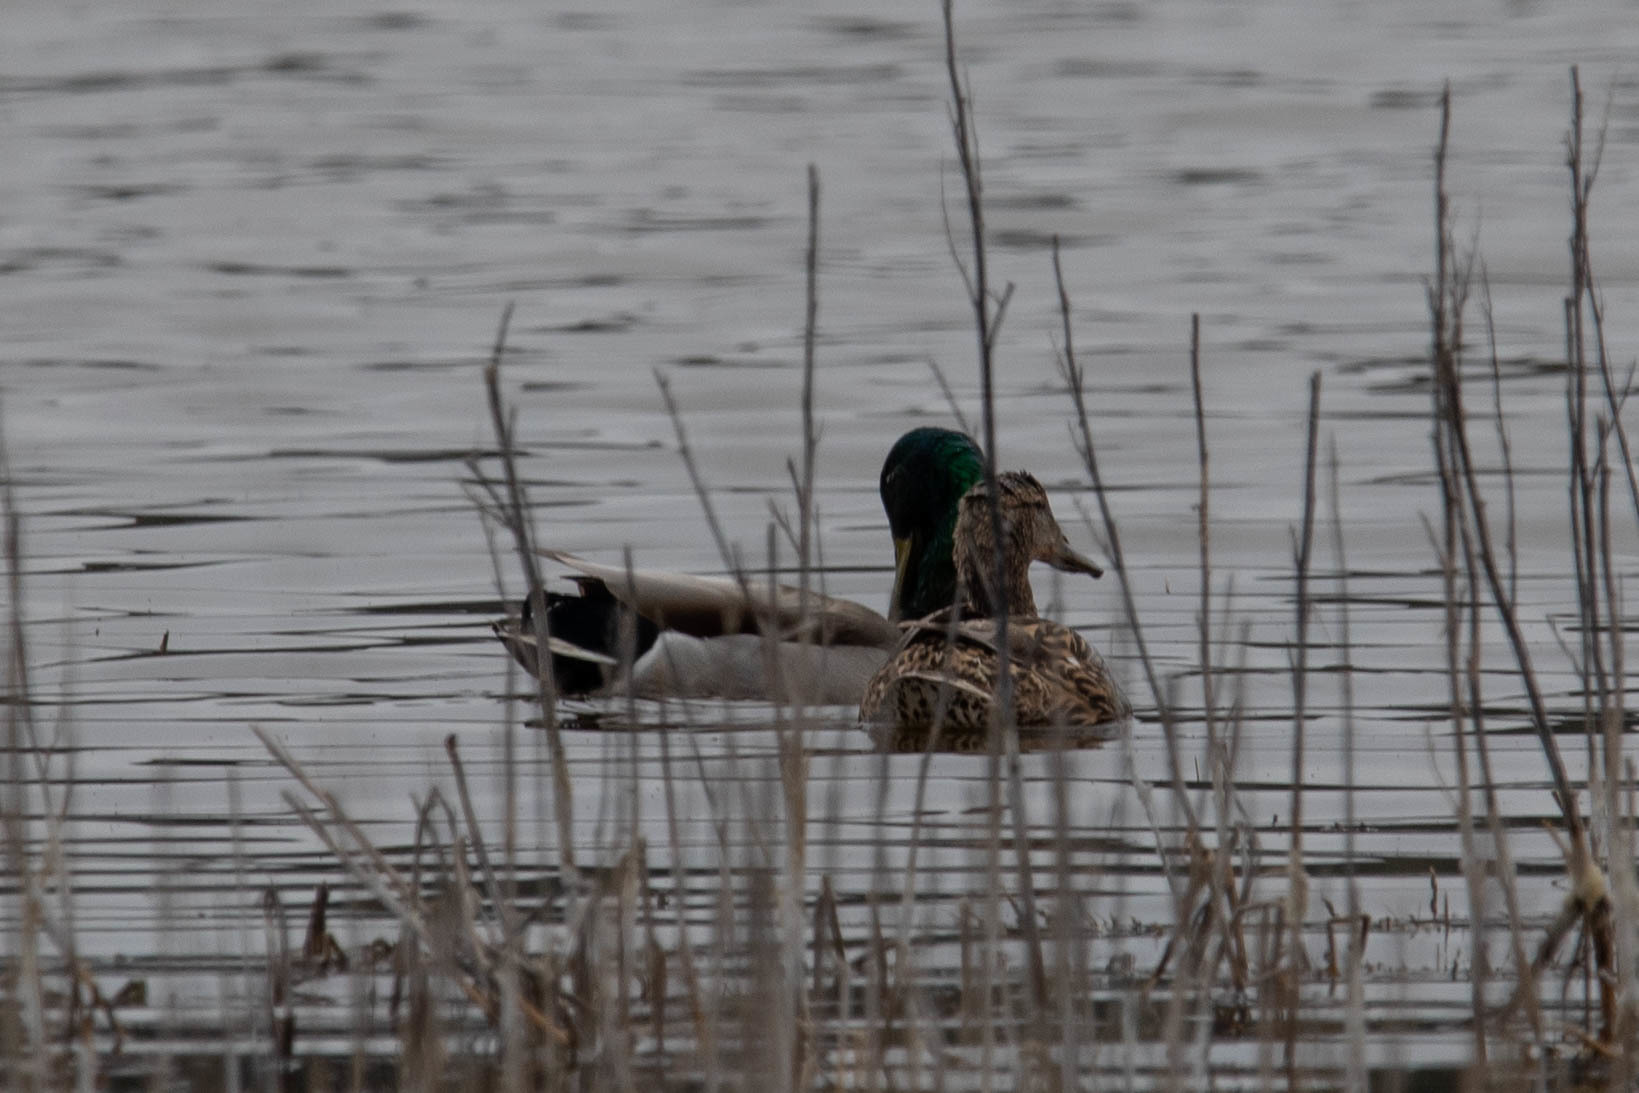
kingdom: Animalia
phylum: Chordata
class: Aves
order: Anseriformes
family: Anatidae
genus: Anas
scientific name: Anas platyrhynchos
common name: Mallard
